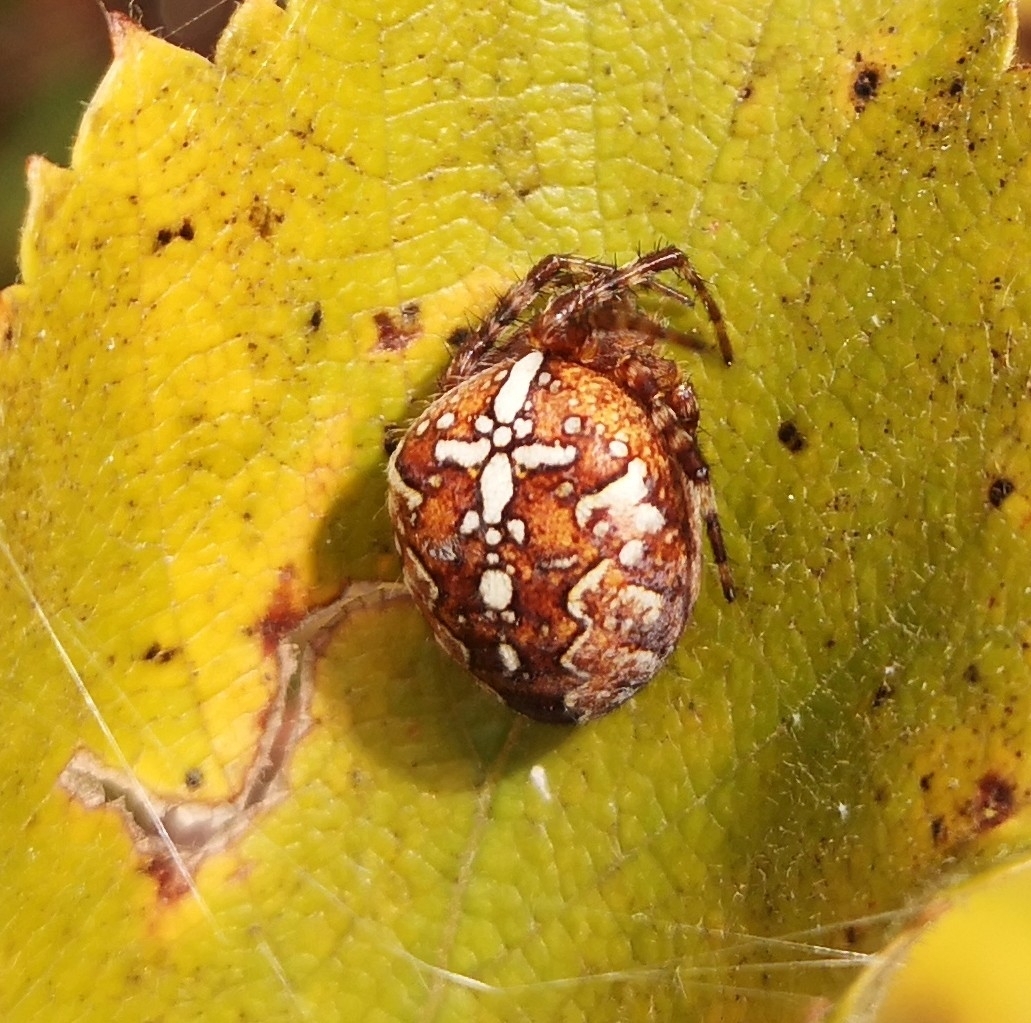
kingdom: Animalia
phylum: Arthropoda
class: Arachnida
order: Araneae
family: Araneidae
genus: Araneus
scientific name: Araneus diadematus
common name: Cross orbweaver
